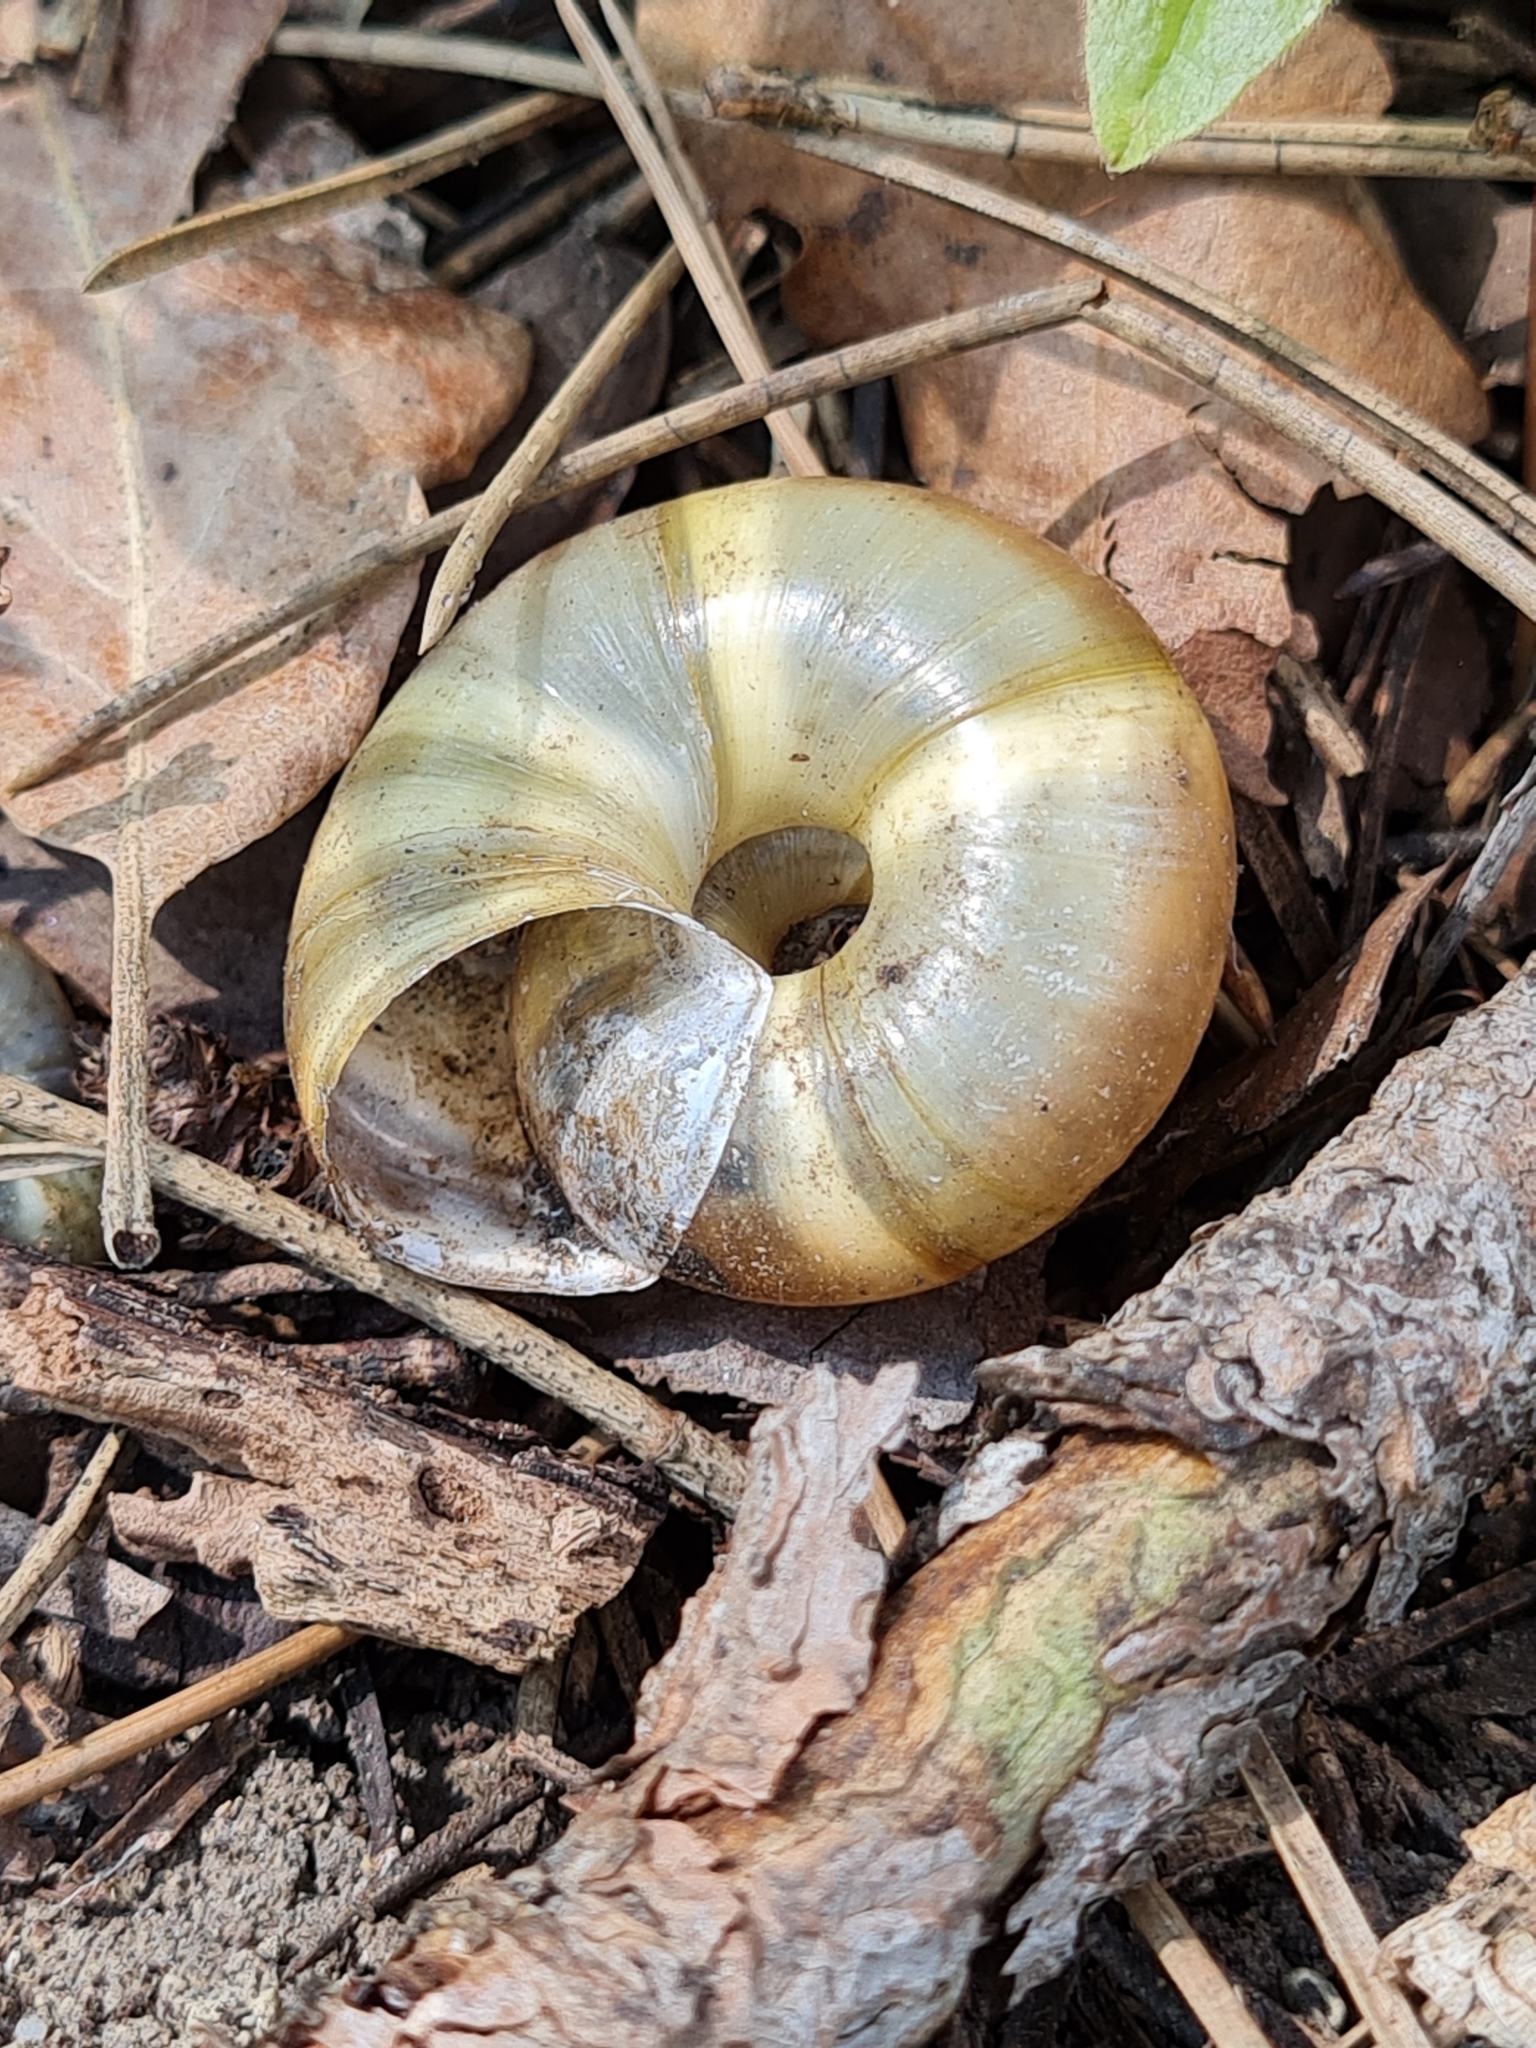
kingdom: Animalia
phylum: Mollusca
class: Gastropoda
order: Stylommatophora
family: Zonitidae
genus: Aegopis
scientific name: Aegopis verticillus
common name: Giant glass snail
